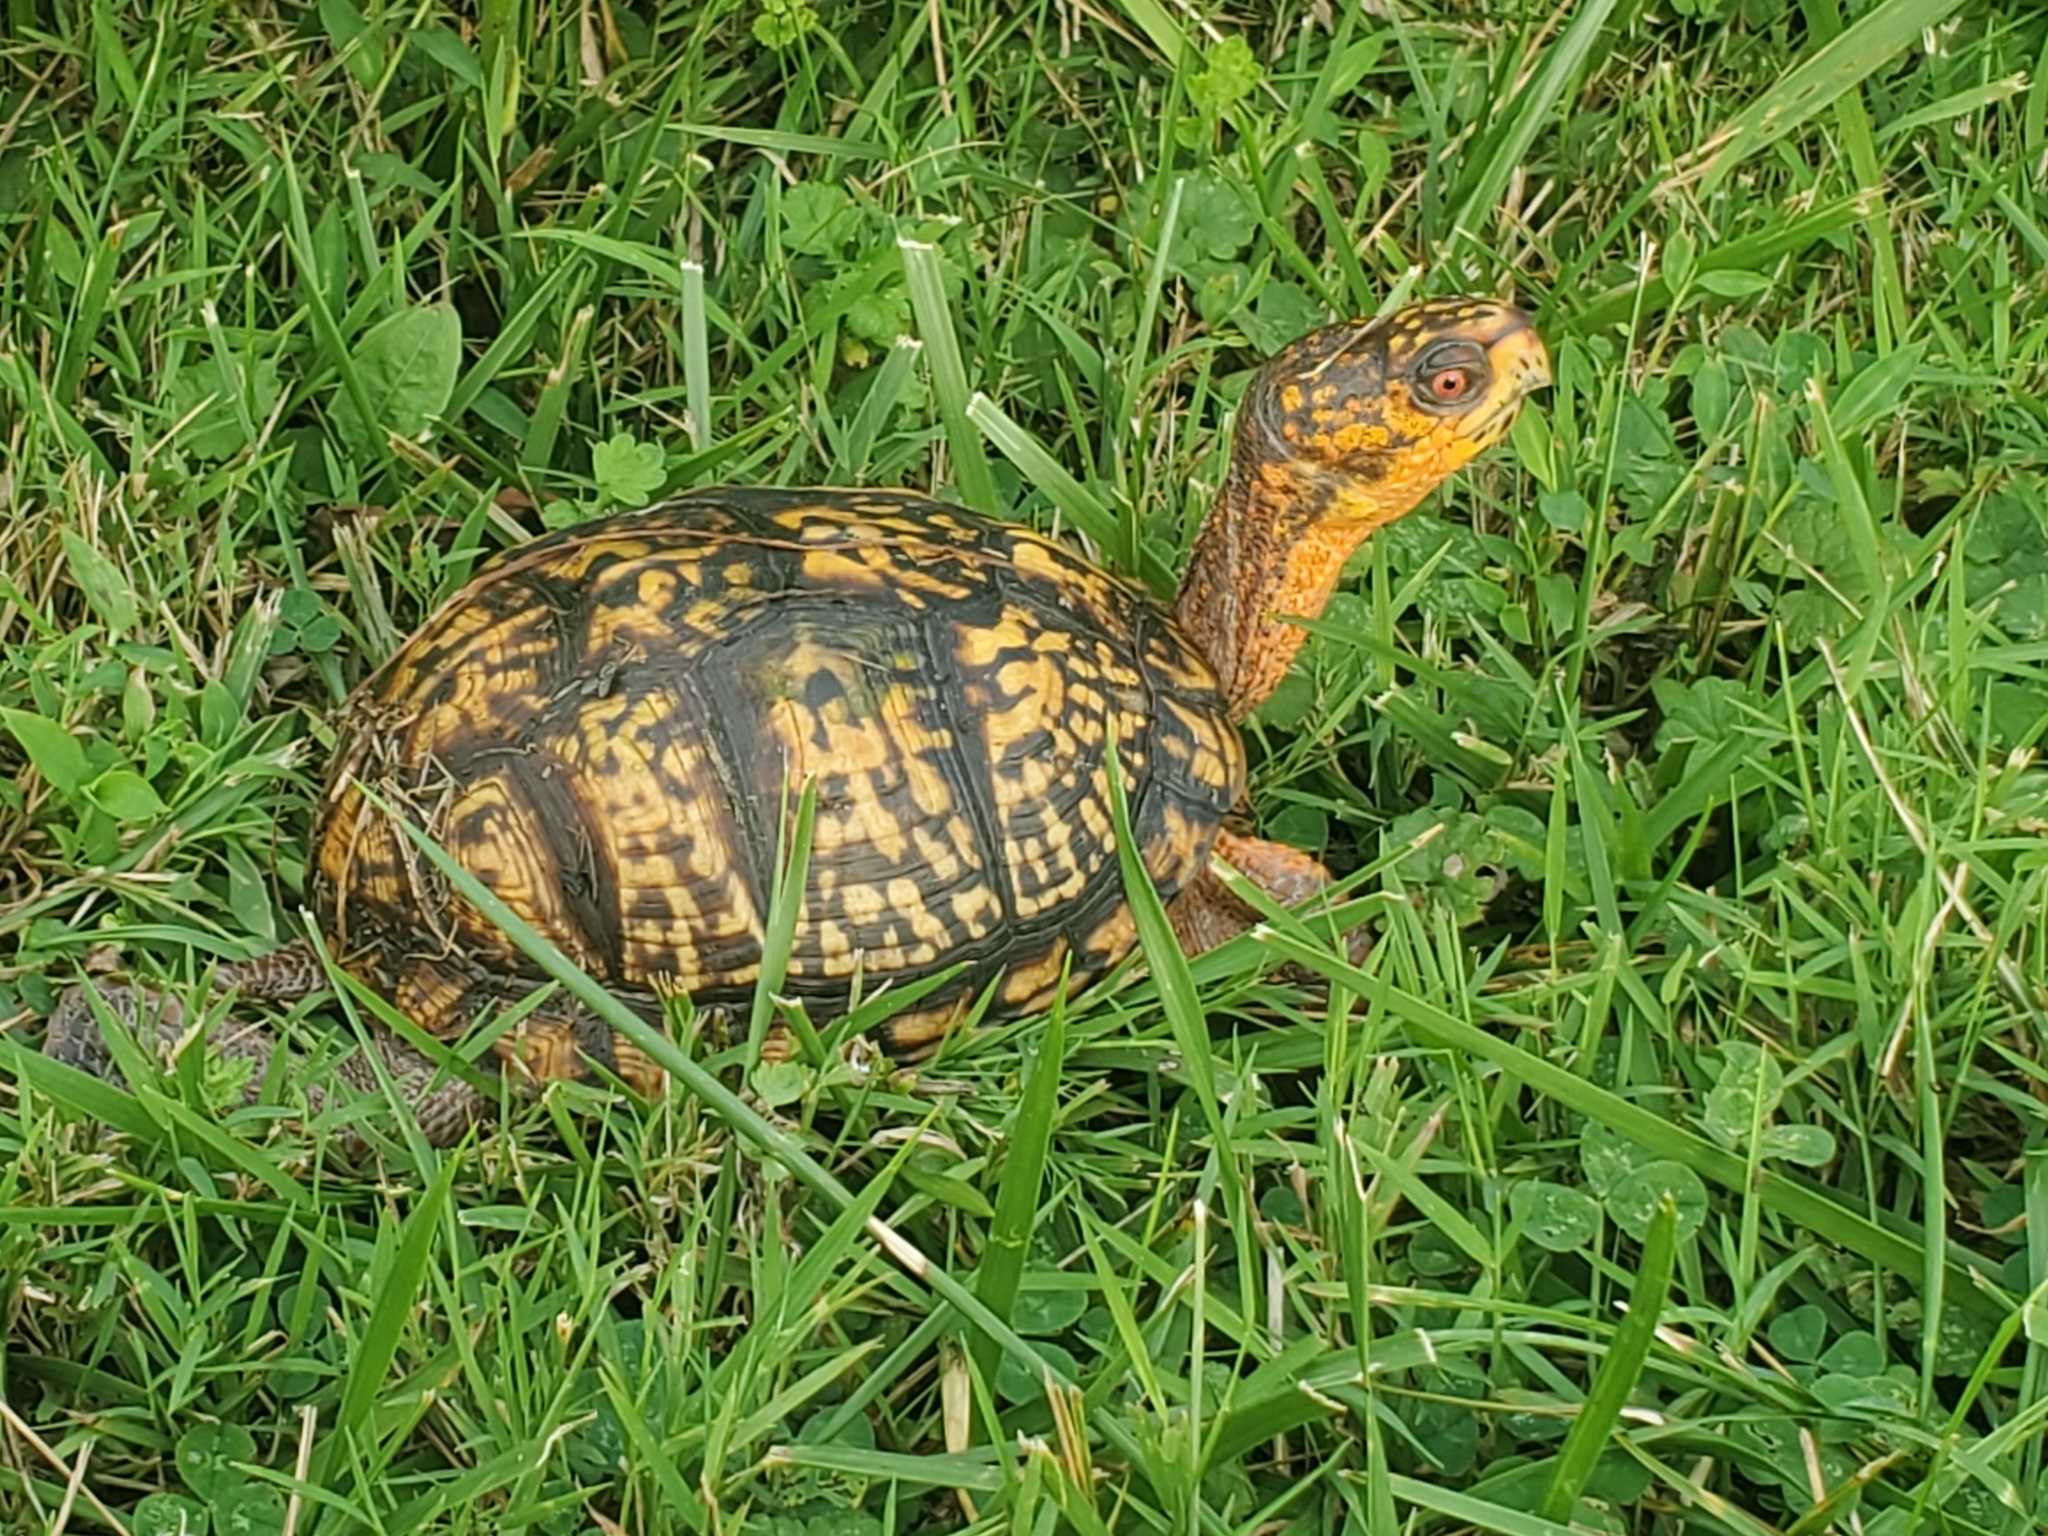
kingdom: Animalia
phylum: Chordata
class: Testudines
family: Emydidae
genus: Terrapene
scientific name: Terrapene carolina
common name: Common box turtle
